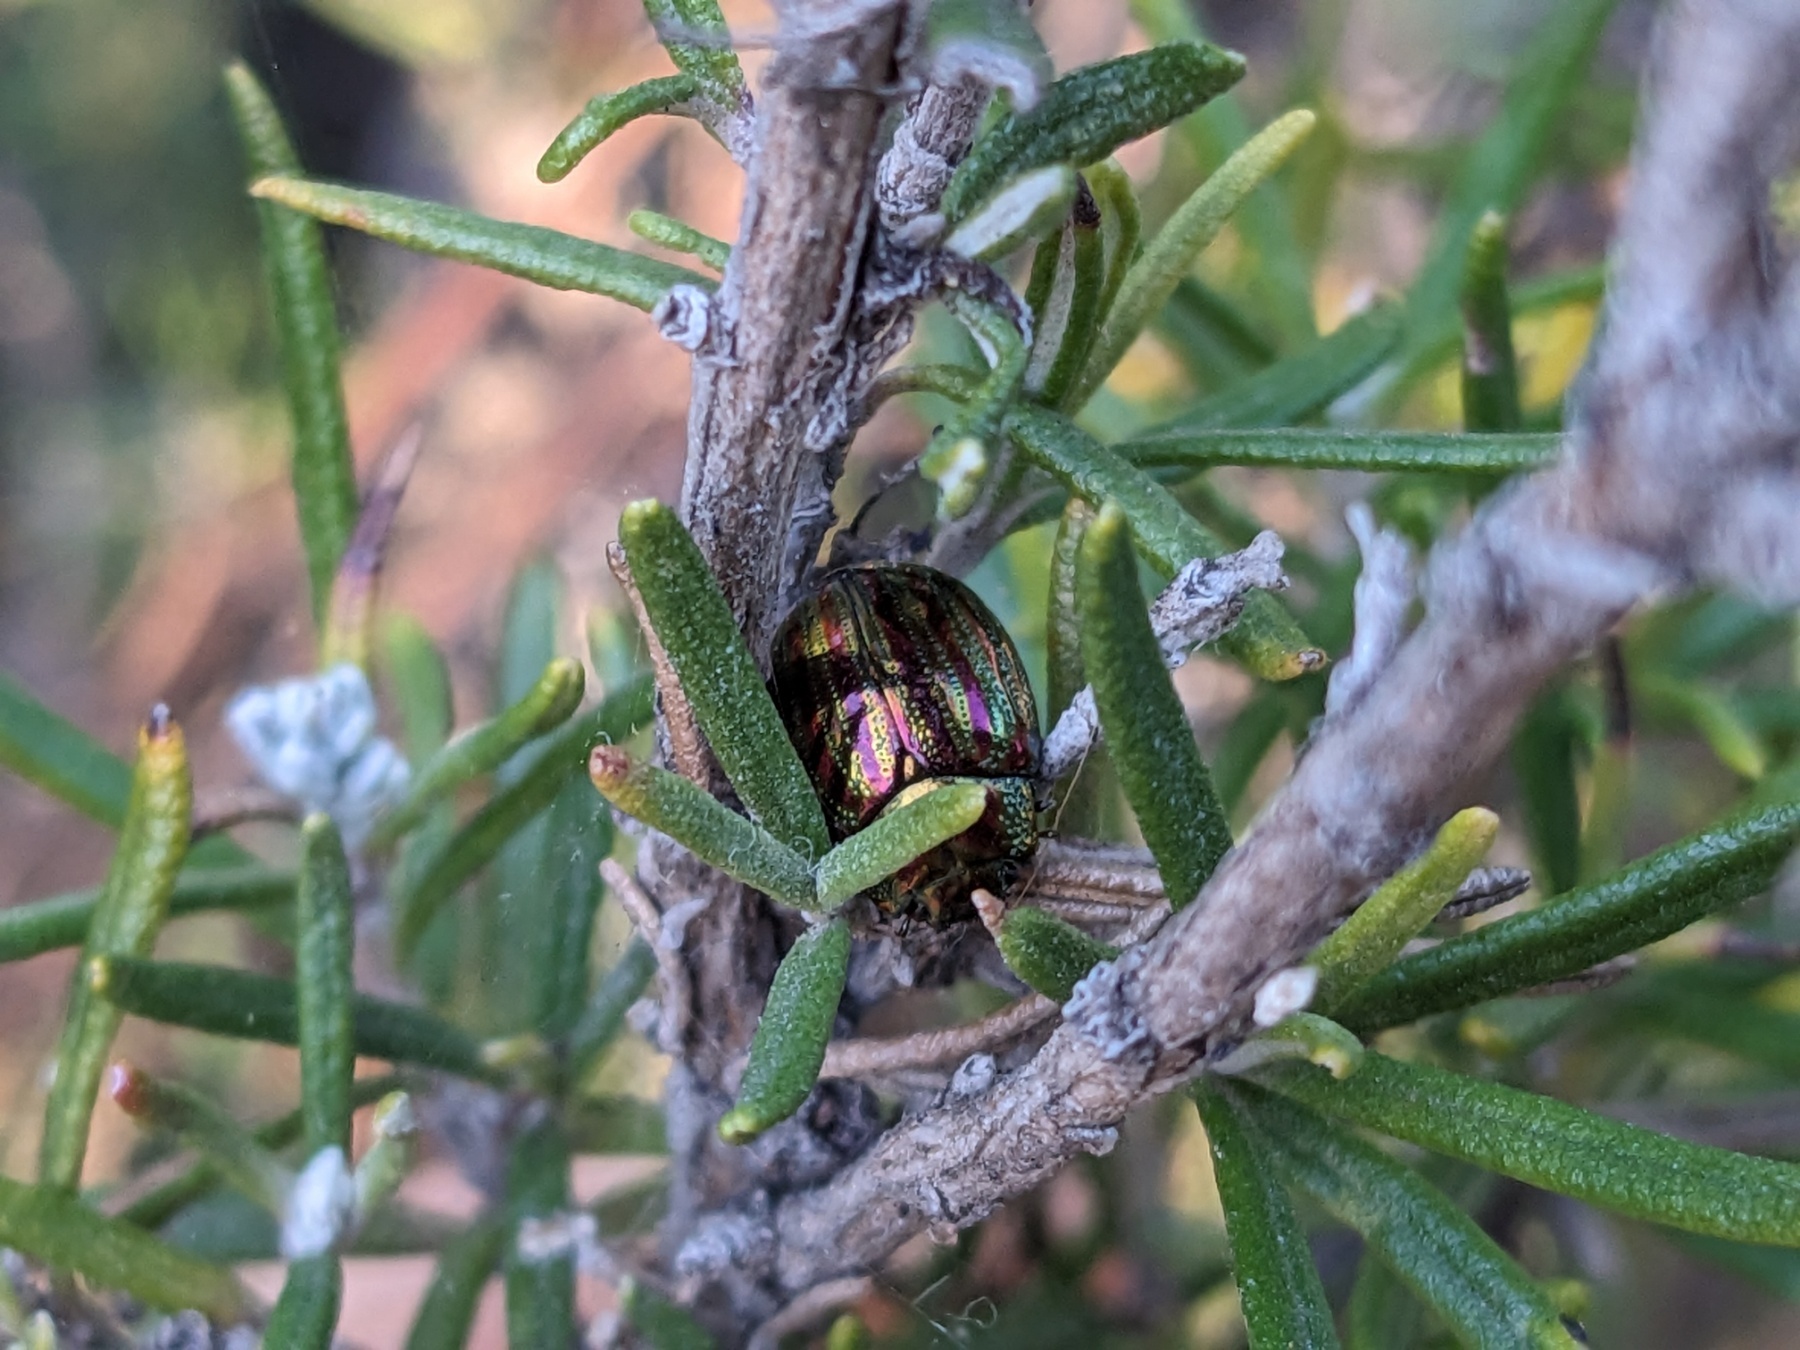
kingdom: Animalia
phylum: Arthropoda
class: Insecta
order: Coleoptera
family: Chrysomelidae
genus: Chrysolina
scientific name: Chrysolina americana
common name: Rosemary beetle
